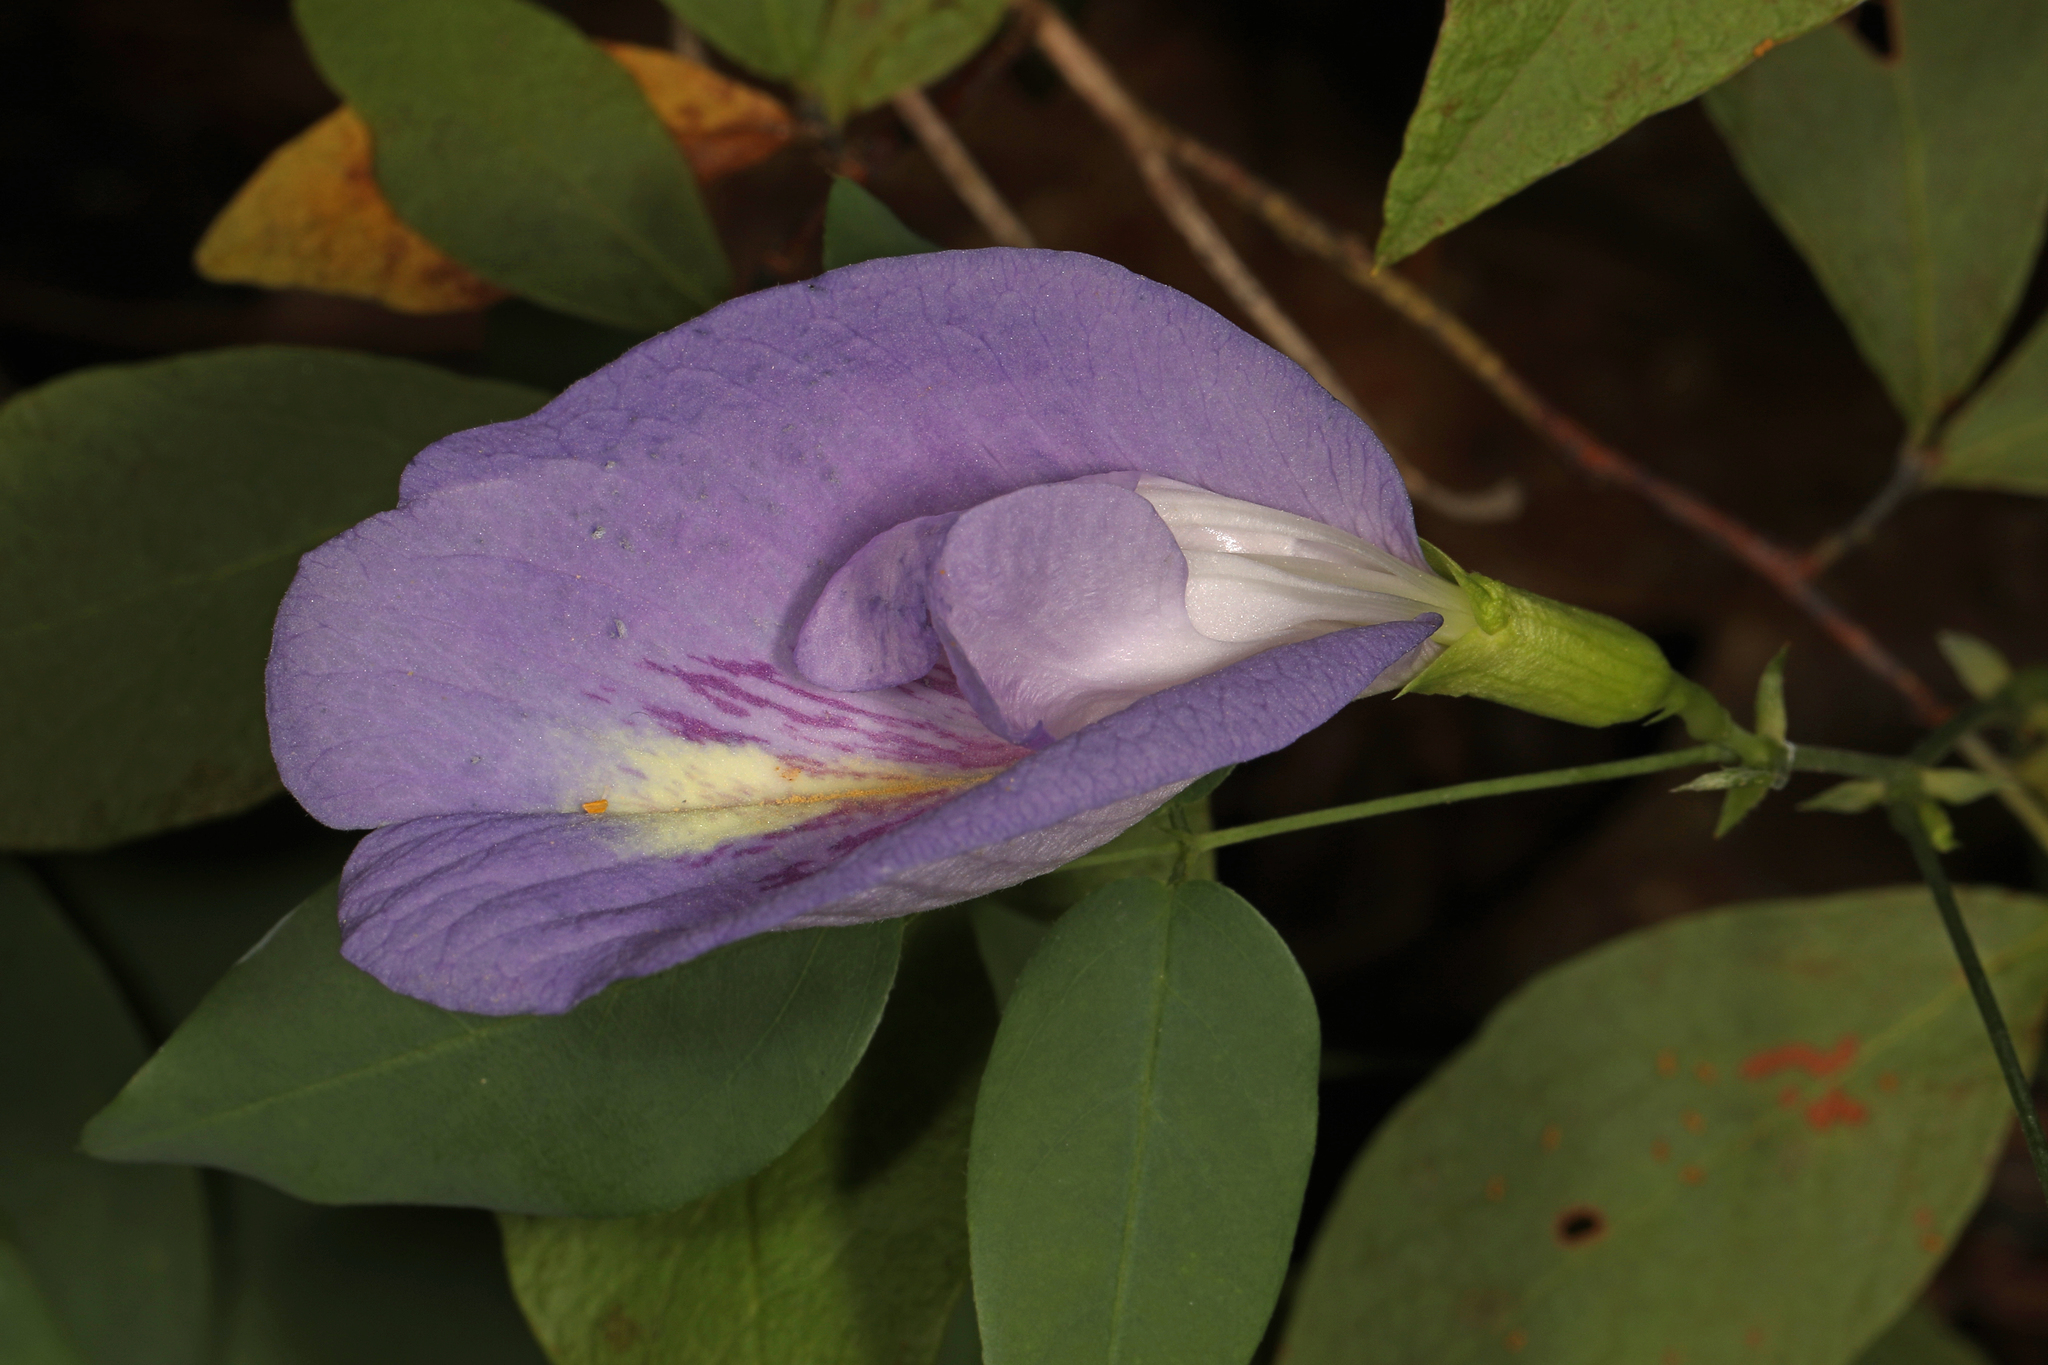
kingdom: Plantae
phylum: Tracheophyta
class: Magnoliopsida
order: Fabales
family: Fabaceae
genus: Clitoria
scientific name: Clitoria mariana
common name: Butterfly-pea
